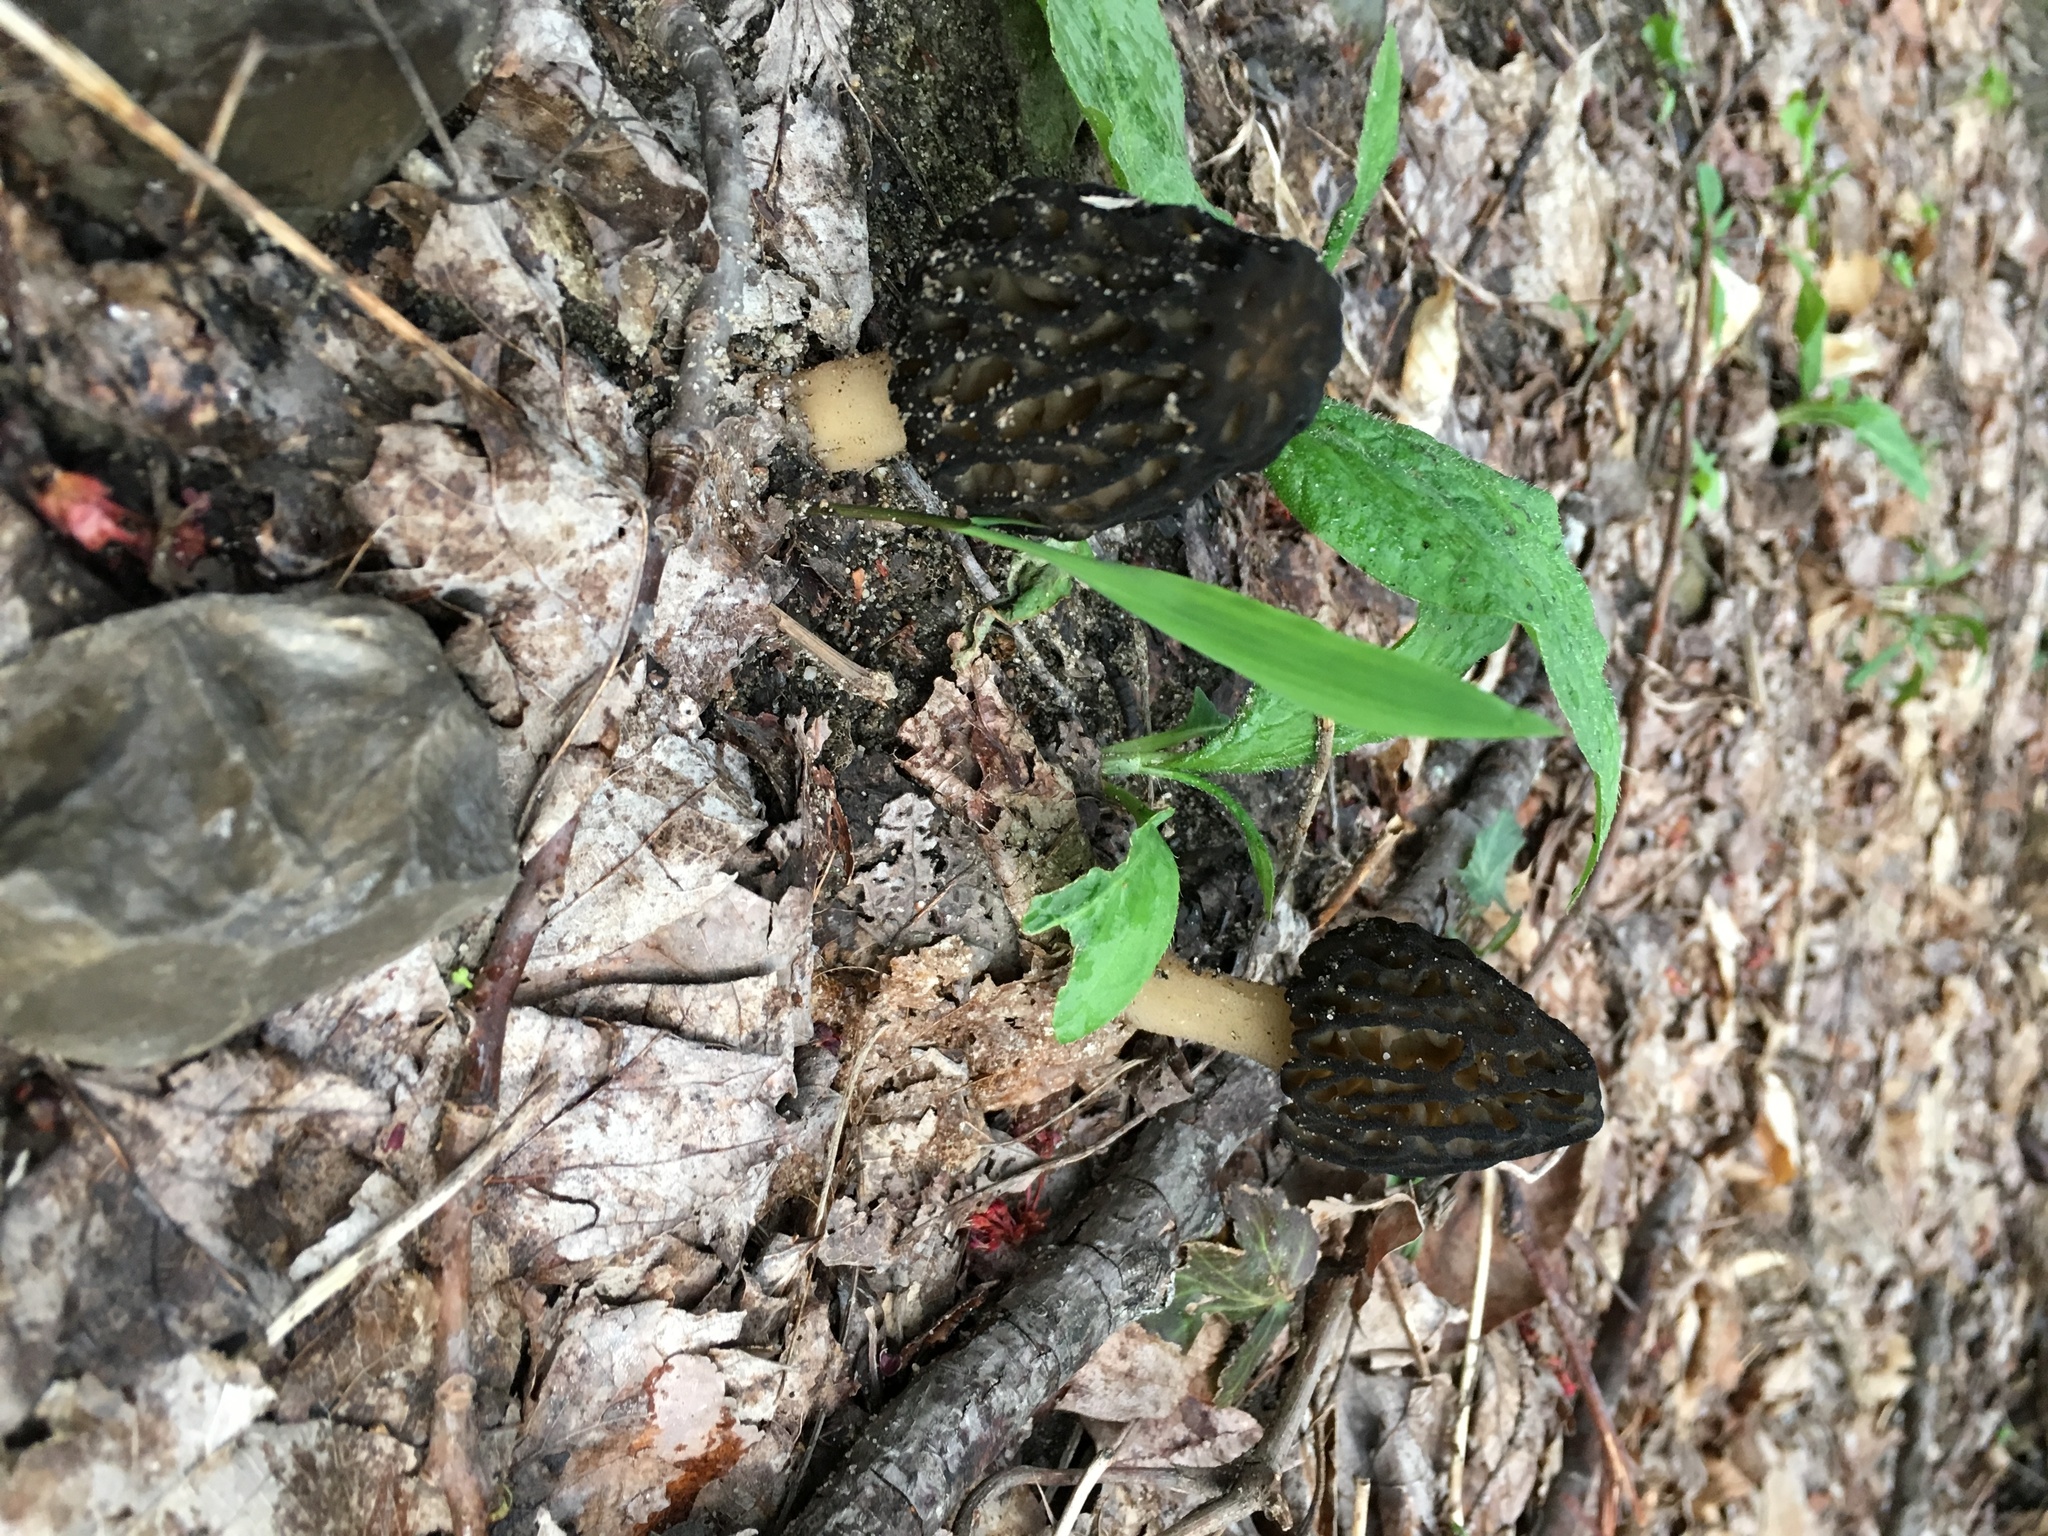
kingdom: Fungi
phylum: Ascomycota
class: Pezizomycetes
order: Pezizales
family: Morchellaceae
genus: Morchella
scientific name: Morchella angusticeps
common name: Black morel
